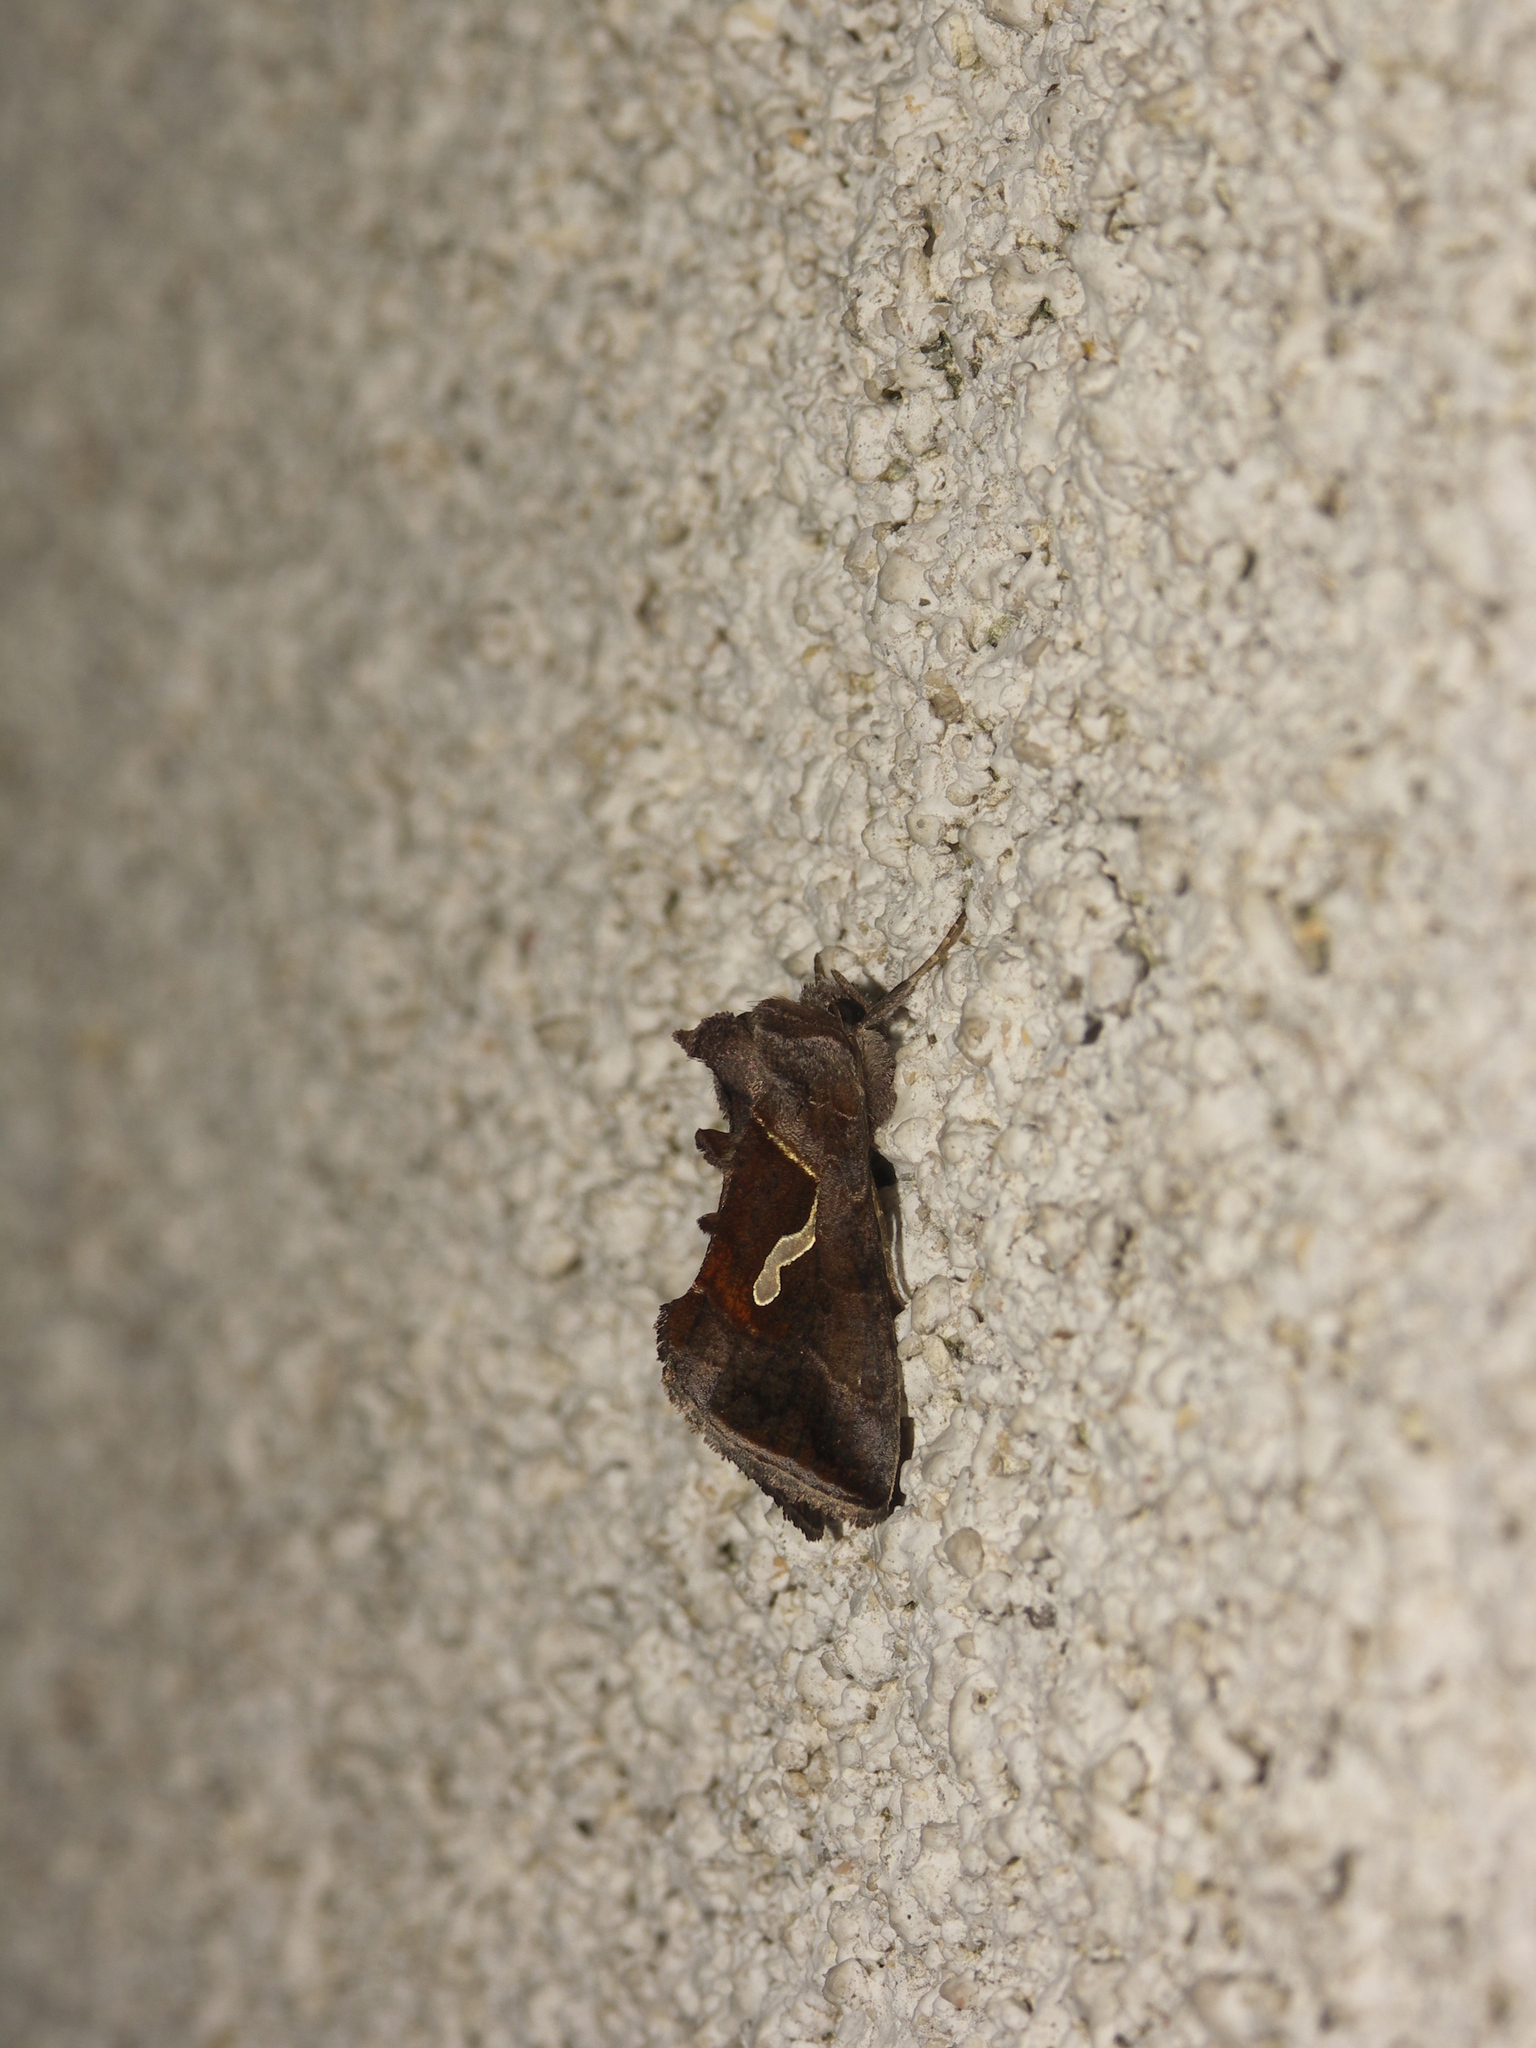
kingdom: Animalia
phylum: Arthropoda
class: Insecta
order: Lepidoptera
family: Noctuidae
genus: Macdunnoughia
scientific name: Macdunnoughia confusa
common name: Dewick's plusia
